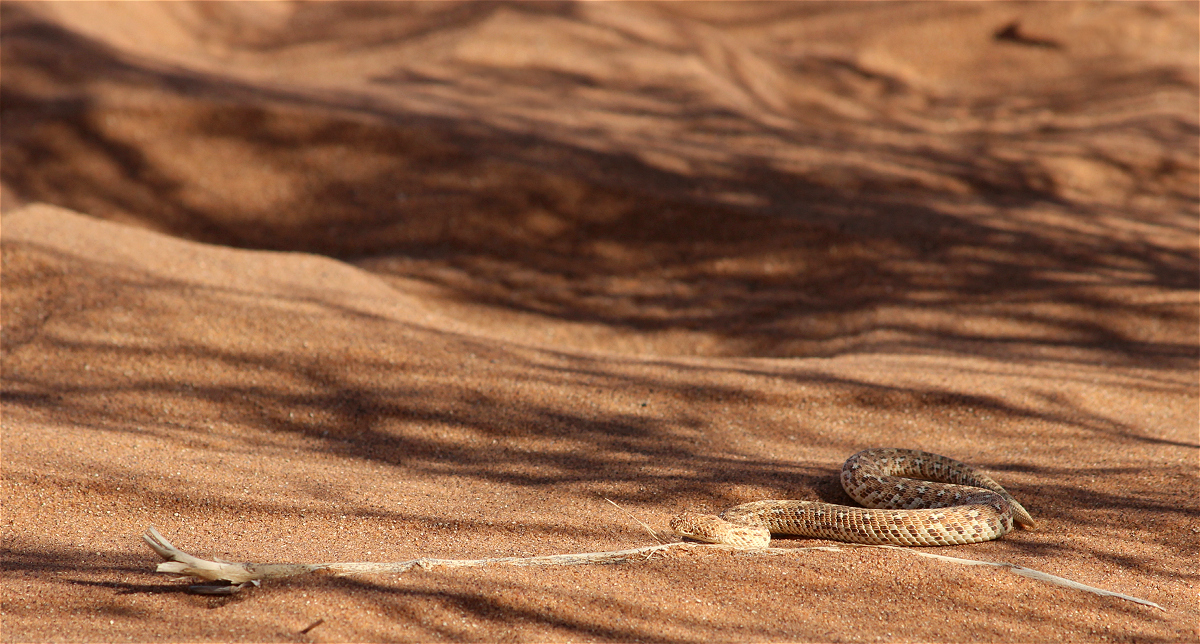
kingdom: Animalia
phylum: Chordata
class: Squamata
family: Viperidae
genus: Bitis
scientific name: Bitis peringueyi
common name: Dwarf puff adder
